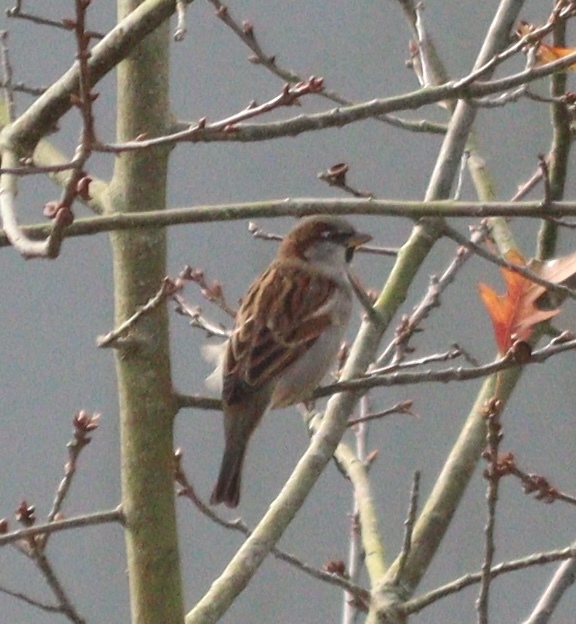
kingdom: Animalia
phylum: Chordata
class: Aves
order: Passeriformes
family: Passeridae
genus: Passer
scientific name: Passer domesticus
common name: House sparrow
